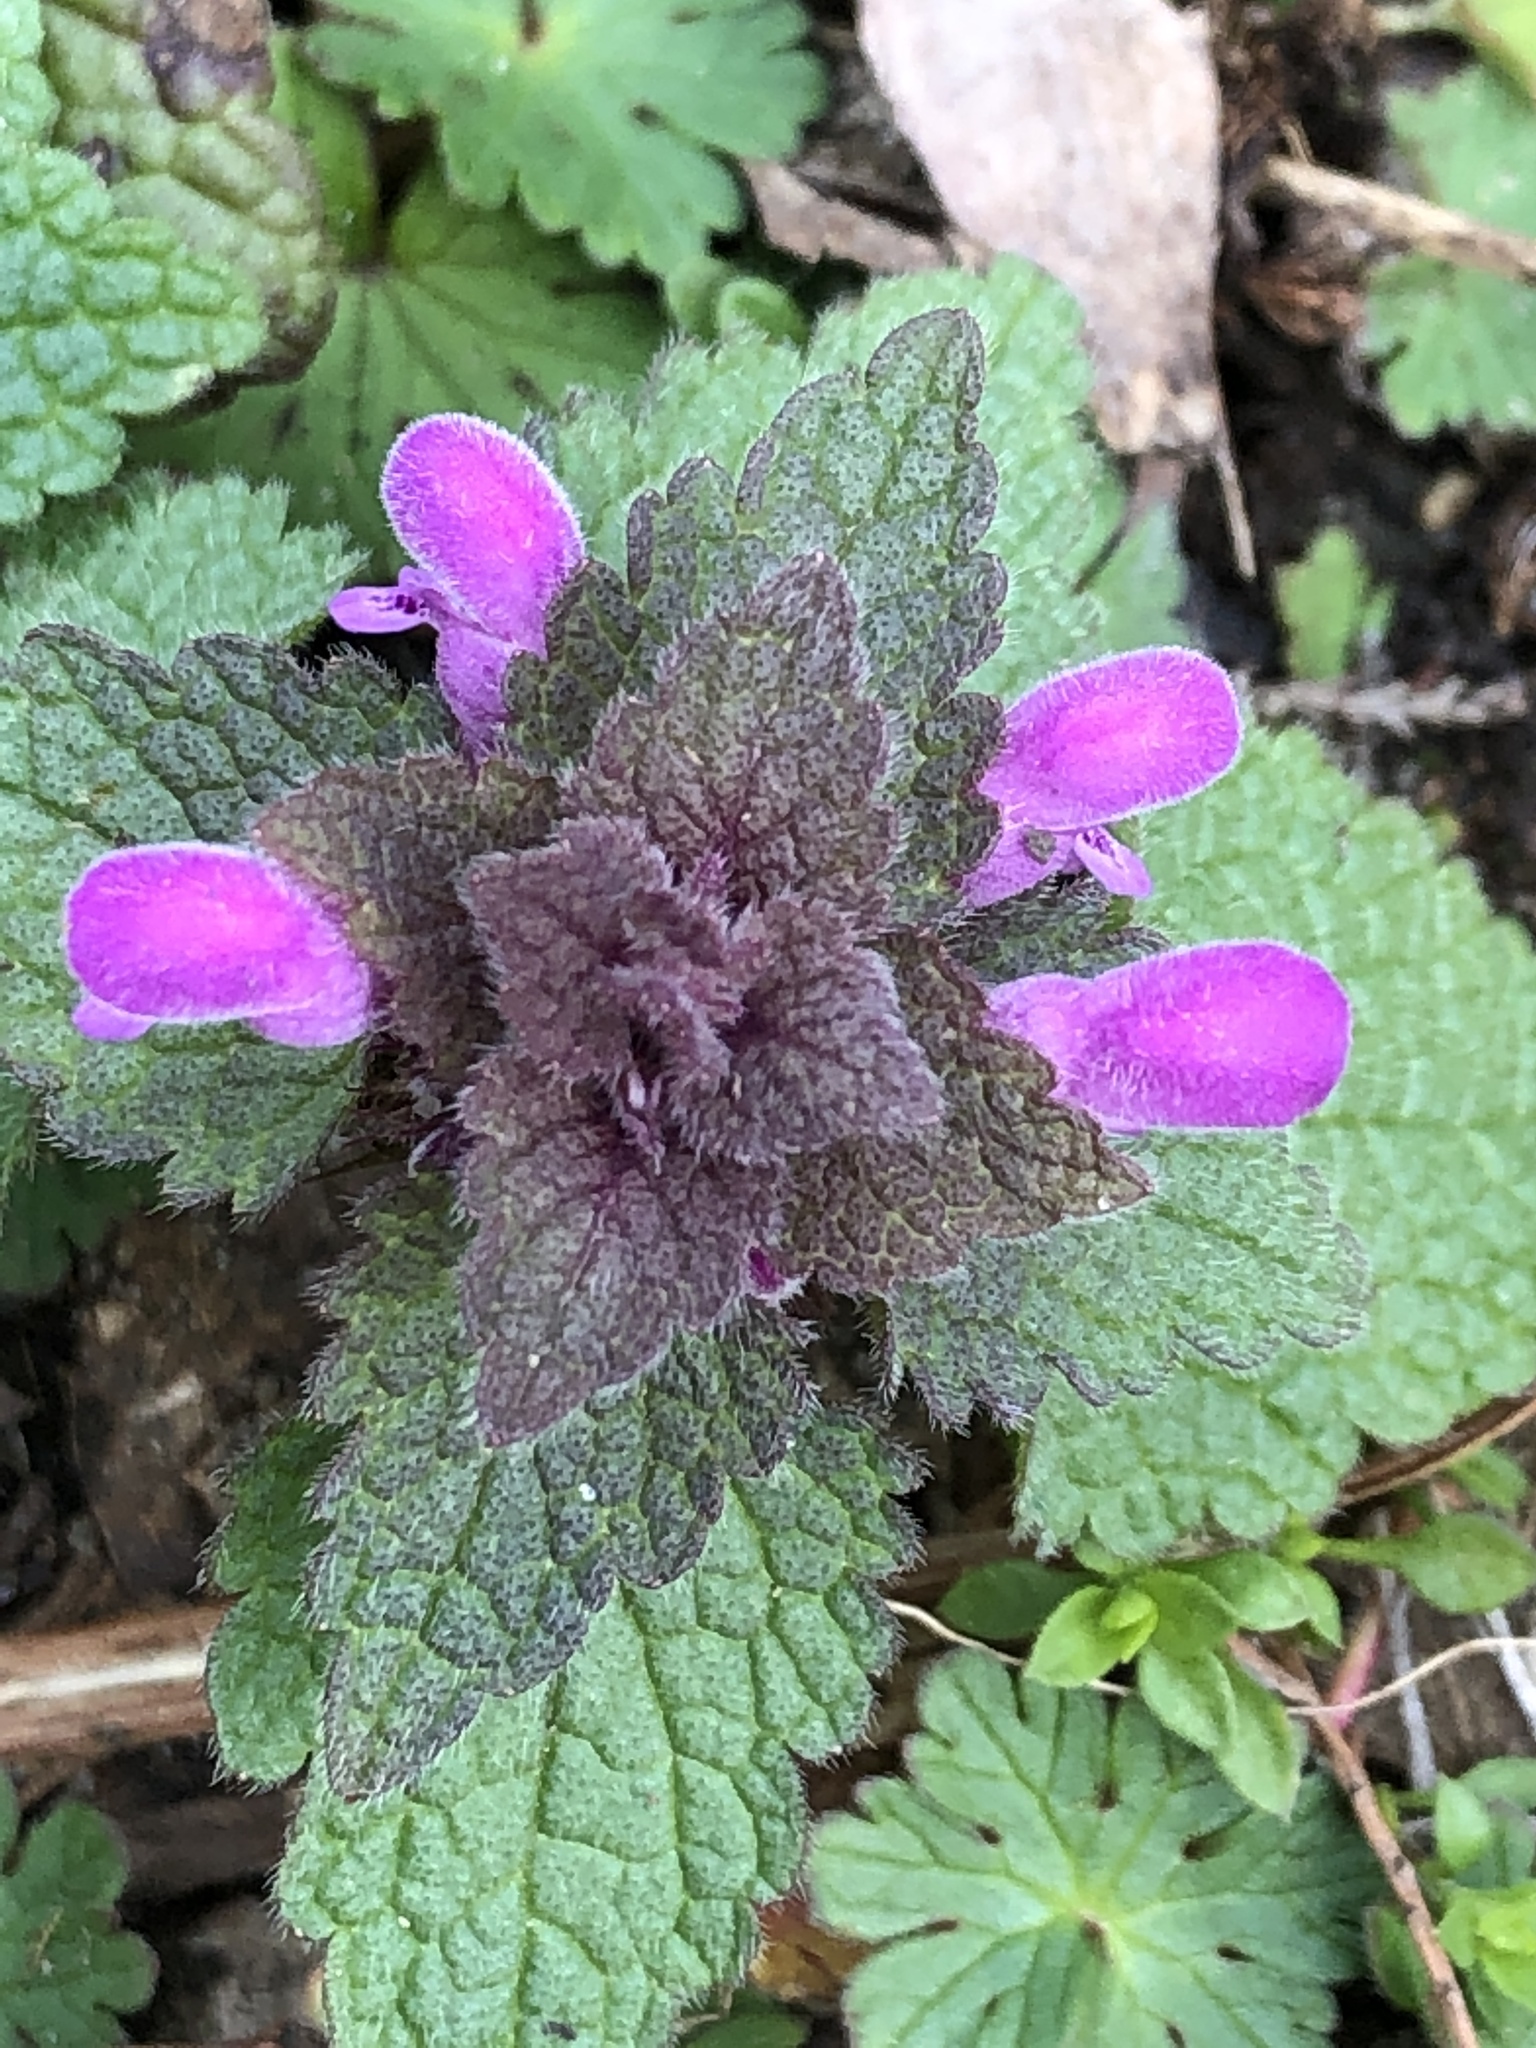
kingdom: Plantae
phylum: Tracheophyta
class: Magnoliopsida
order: Lamiales
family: Lamiaceae
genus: Lamium
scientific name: Lamium purpureum
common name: Red dead-nettle
